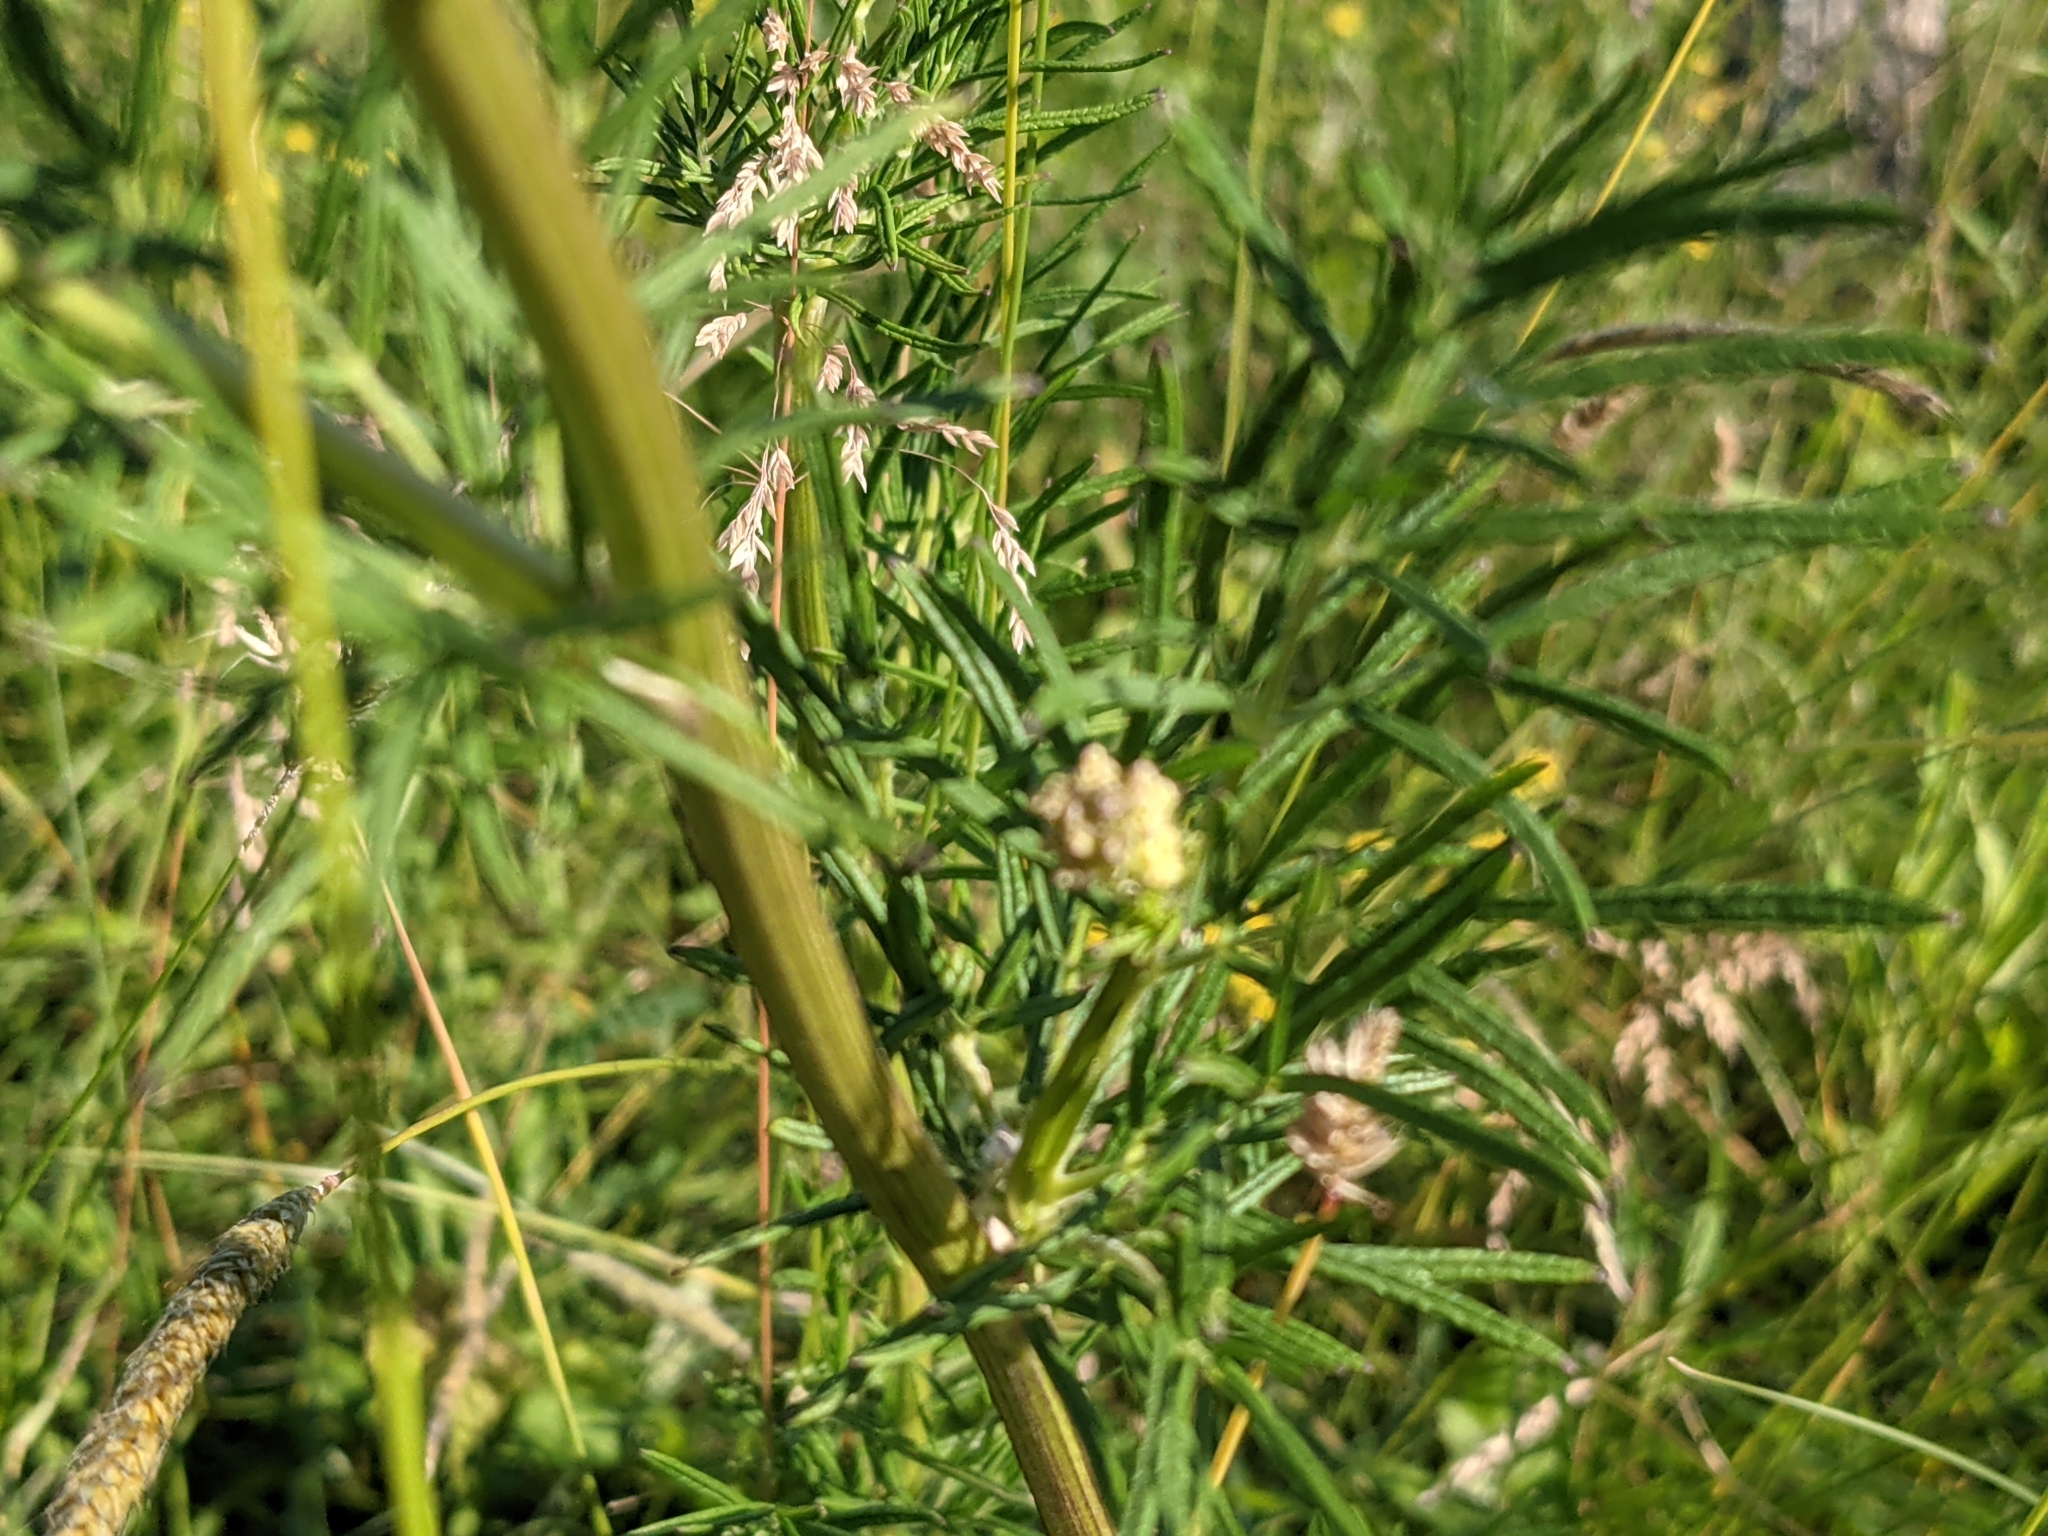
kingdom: Plantae
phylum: Tracheophyta
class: Magnoliopsida
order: Ranunculales
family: Ranunculaceae
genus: Thalictrum
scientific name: Thalictrum lucidum
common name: Shining meadow-rue
